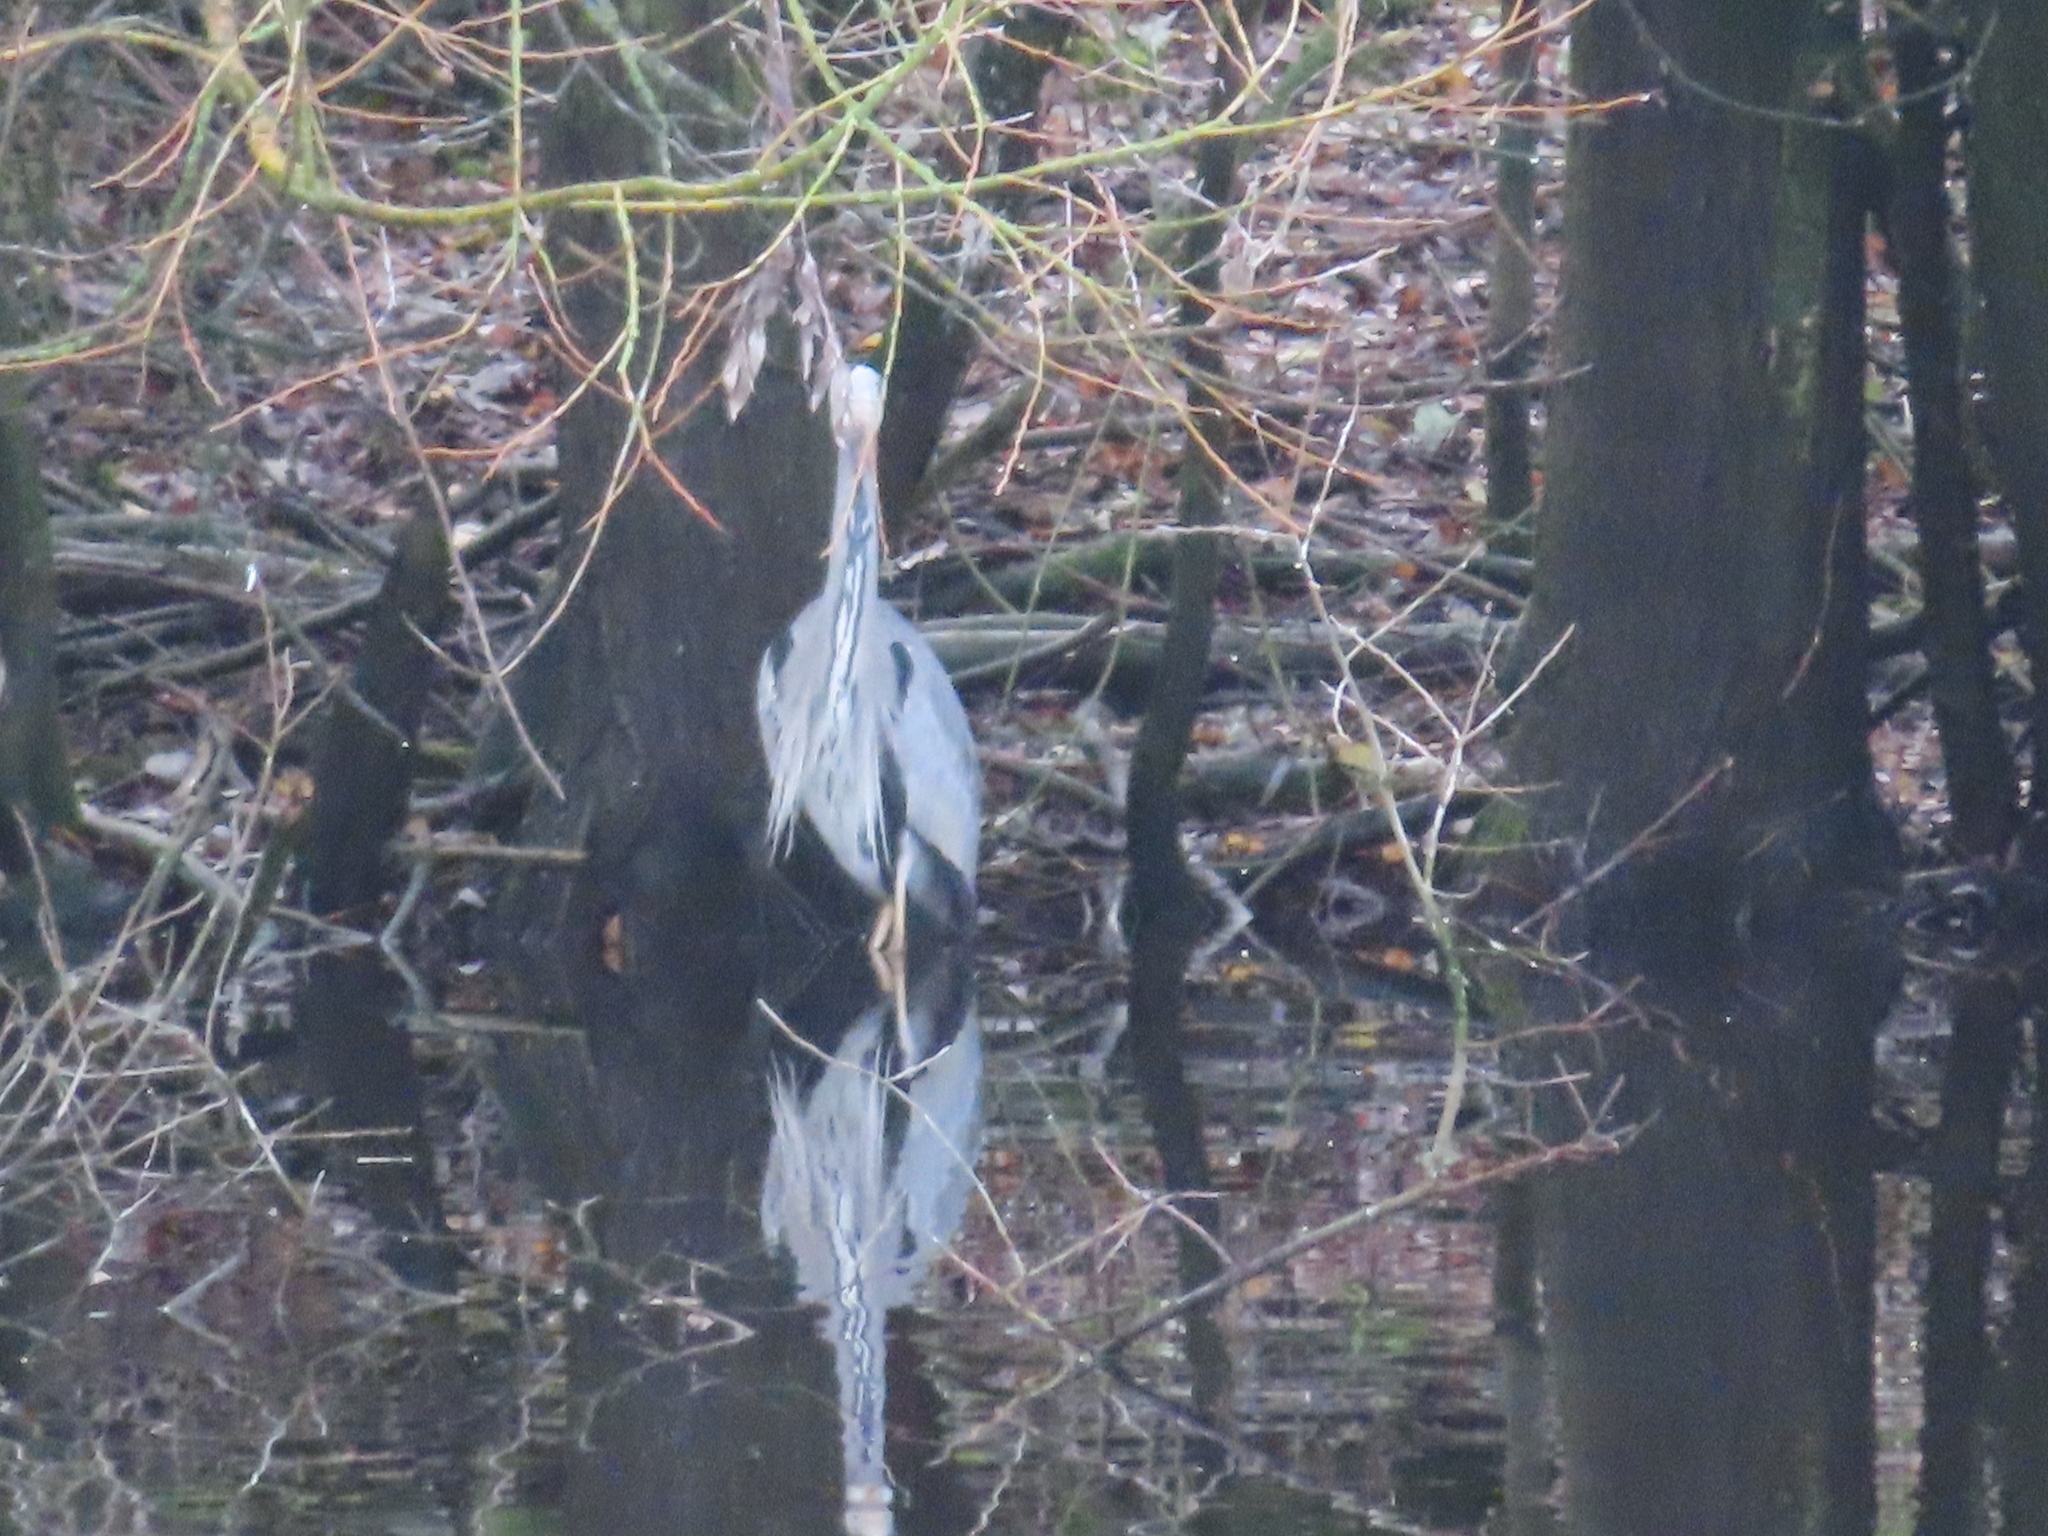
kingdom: Animalia
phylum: Chordata
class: Aves
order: Pelecaniformes
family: Ardeidae
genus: Ardea
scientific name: Ardea cinerea
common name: Grey heron
